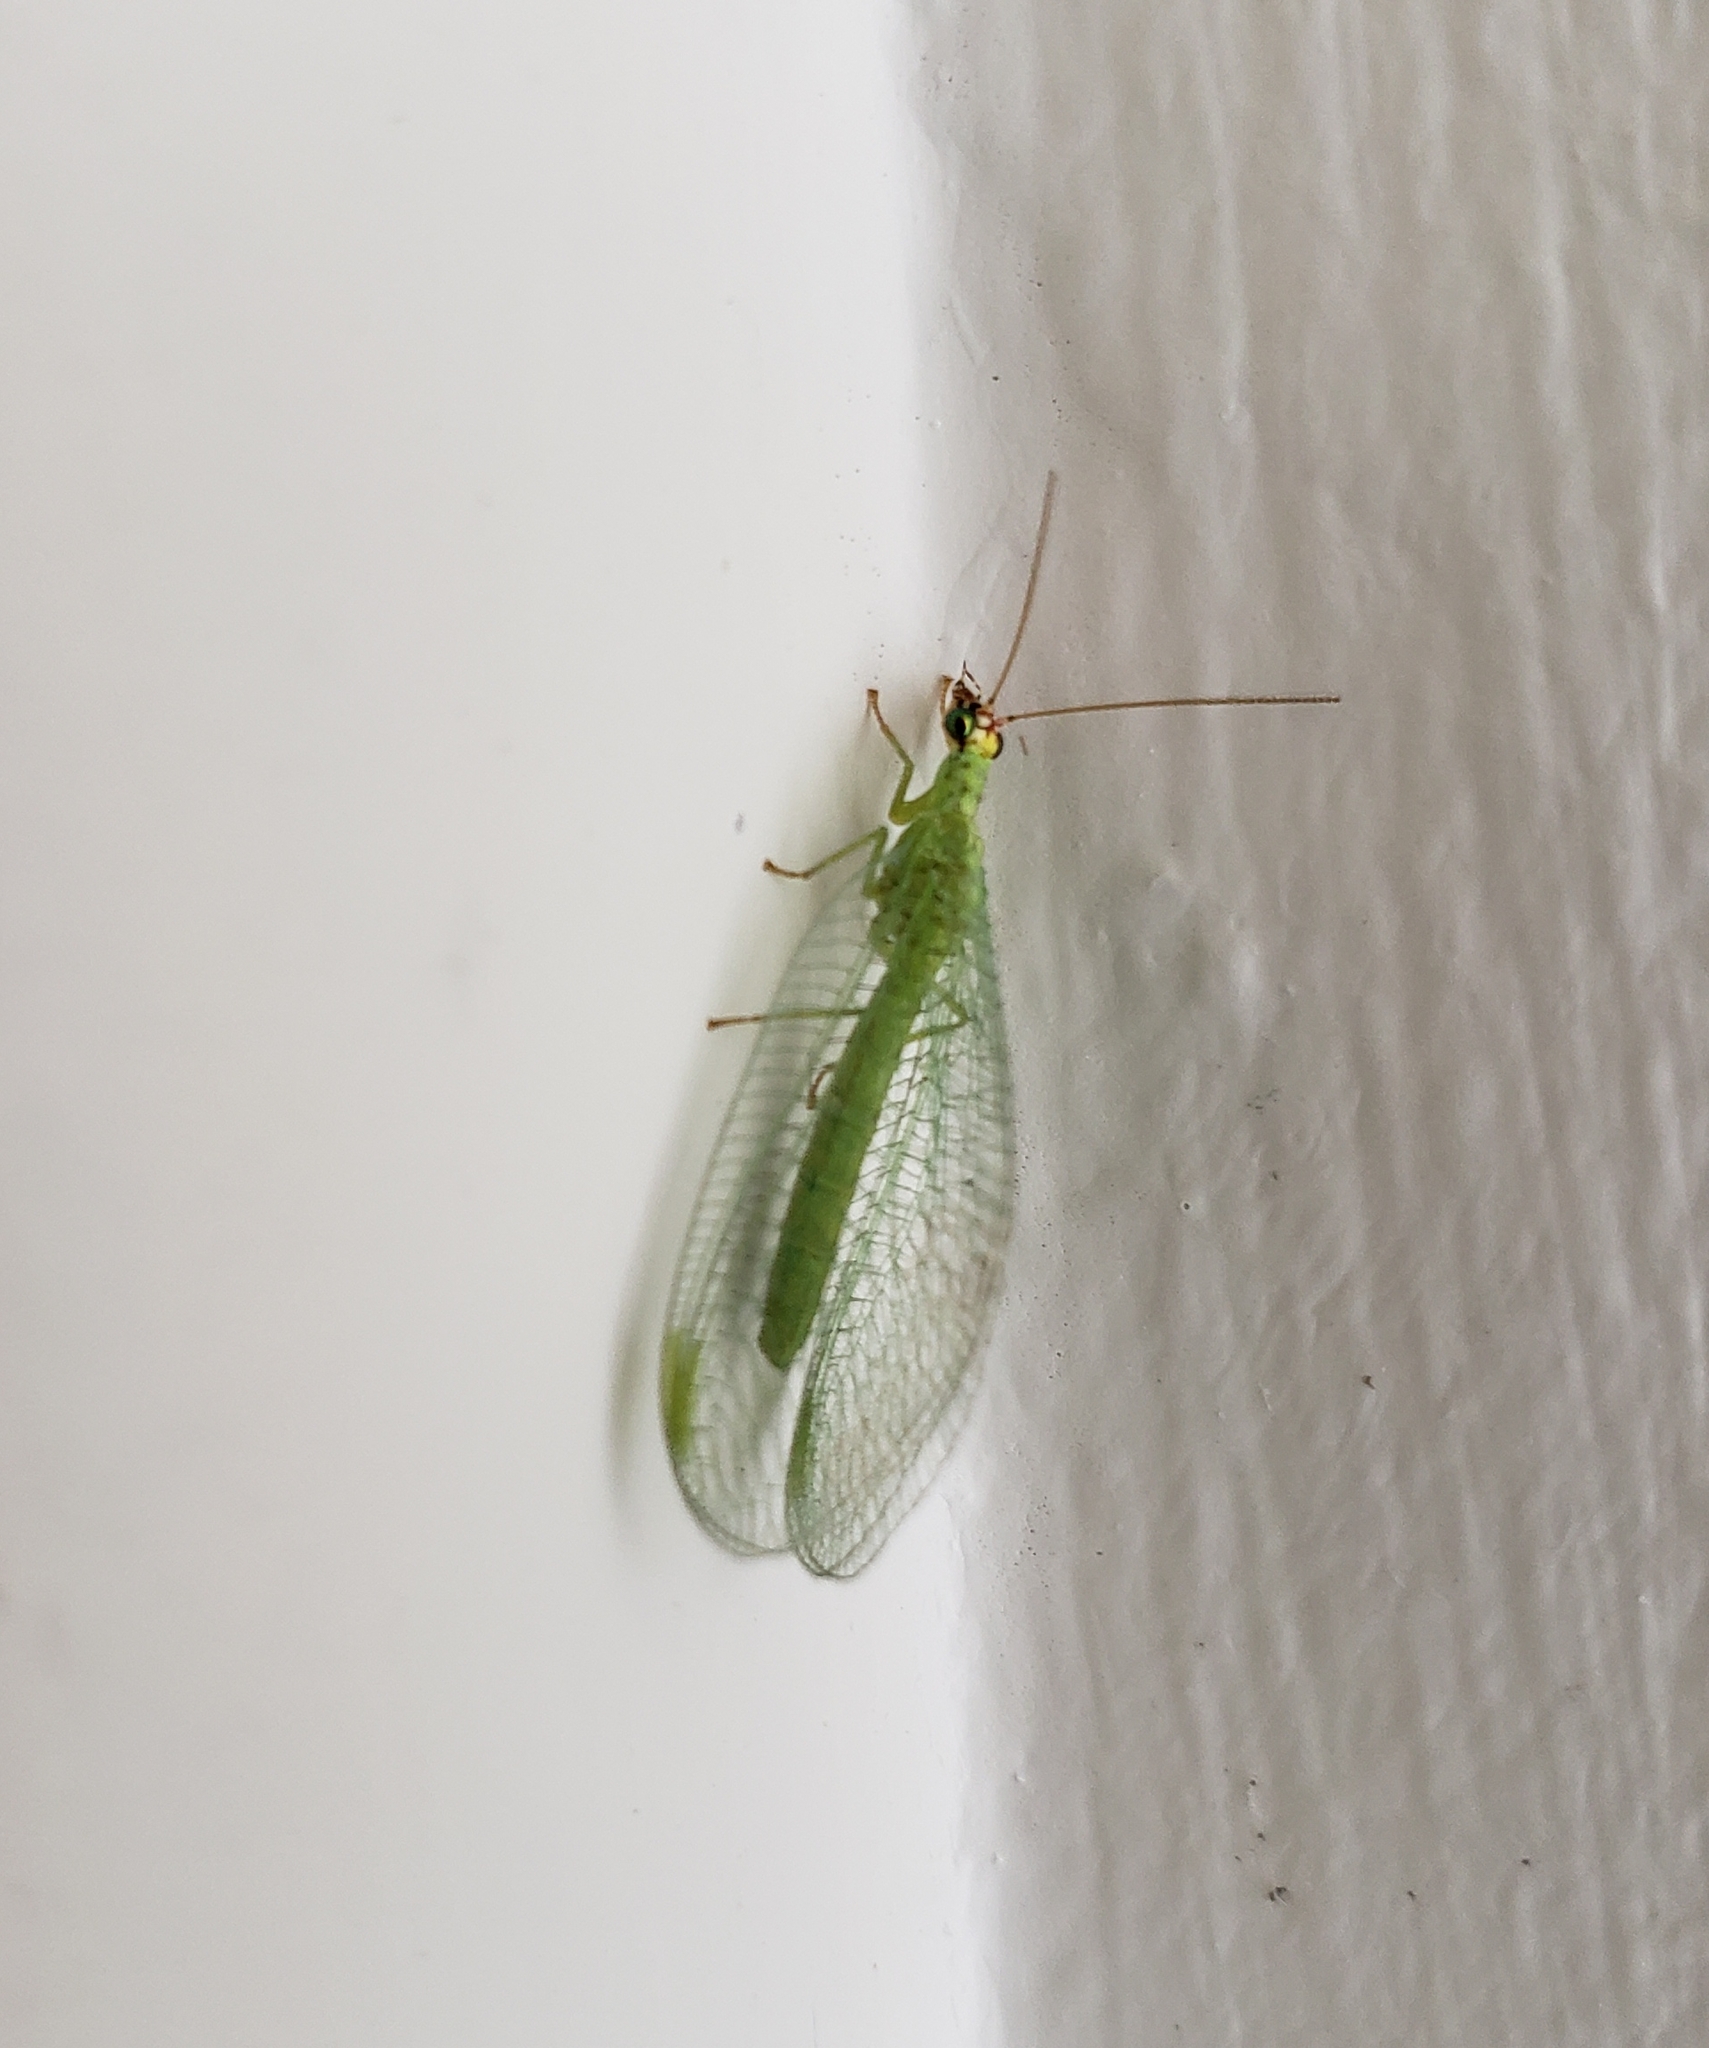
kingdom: Animalia
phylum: Arthropoda
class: Insecta
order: Neuroptera
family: Chrysopidae
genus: Chrysopa
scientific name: Chrysopa oculata
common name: Golden-eyed lacewing
